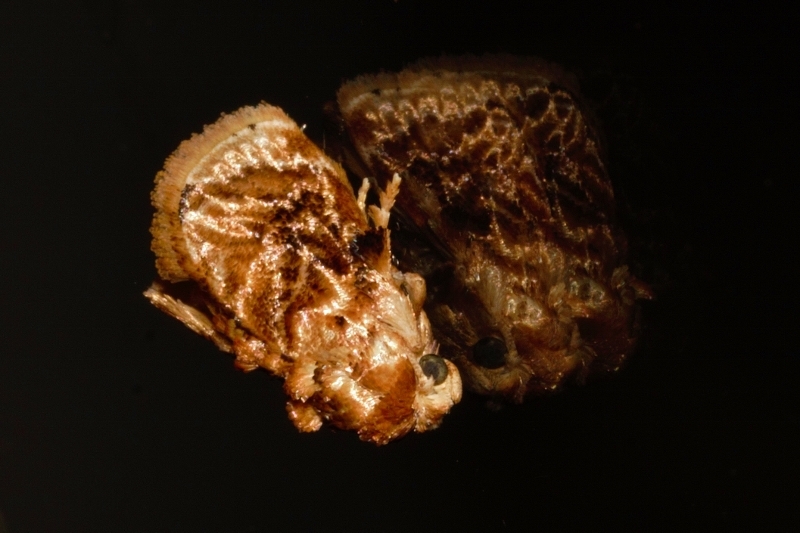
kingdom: Animalia
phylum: Arthropoda
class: Insecta
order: Lepidoptera
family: Limacodidae
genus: Neogavara
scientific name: Neogavara imitans
